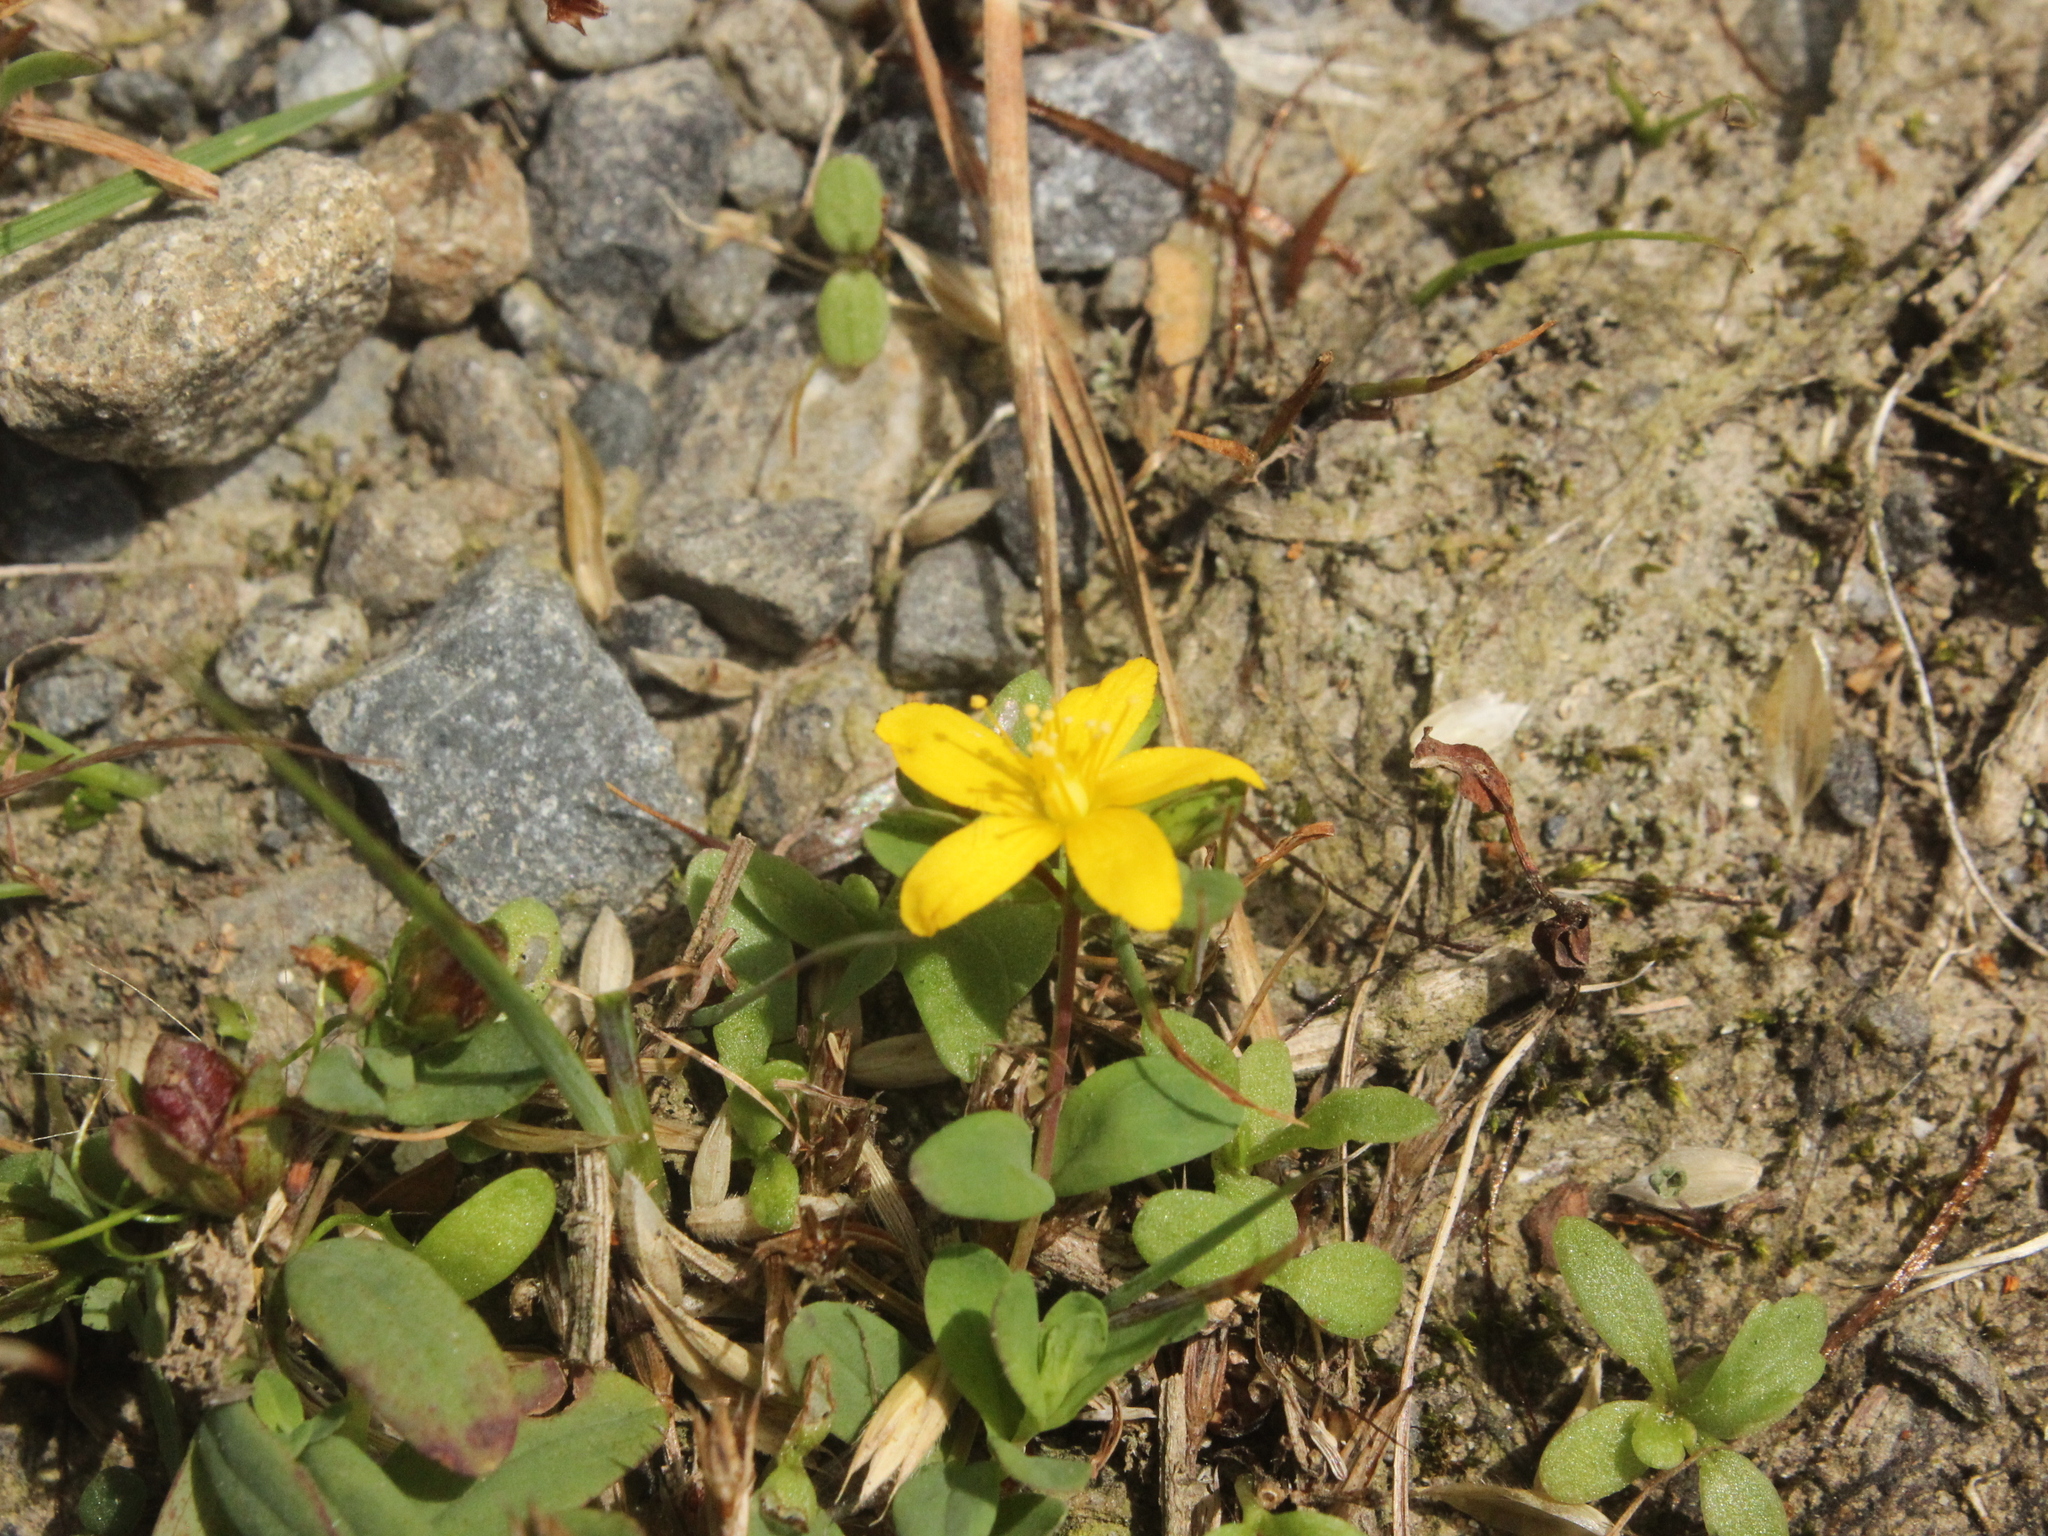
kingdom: Plantae
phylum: Tracheophyta
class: Magnoliopsida
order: Malpighiales
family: Hypericaceae
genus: Hypericum
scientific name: Hypericum humifusum
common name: Trailing st. john's-wort
